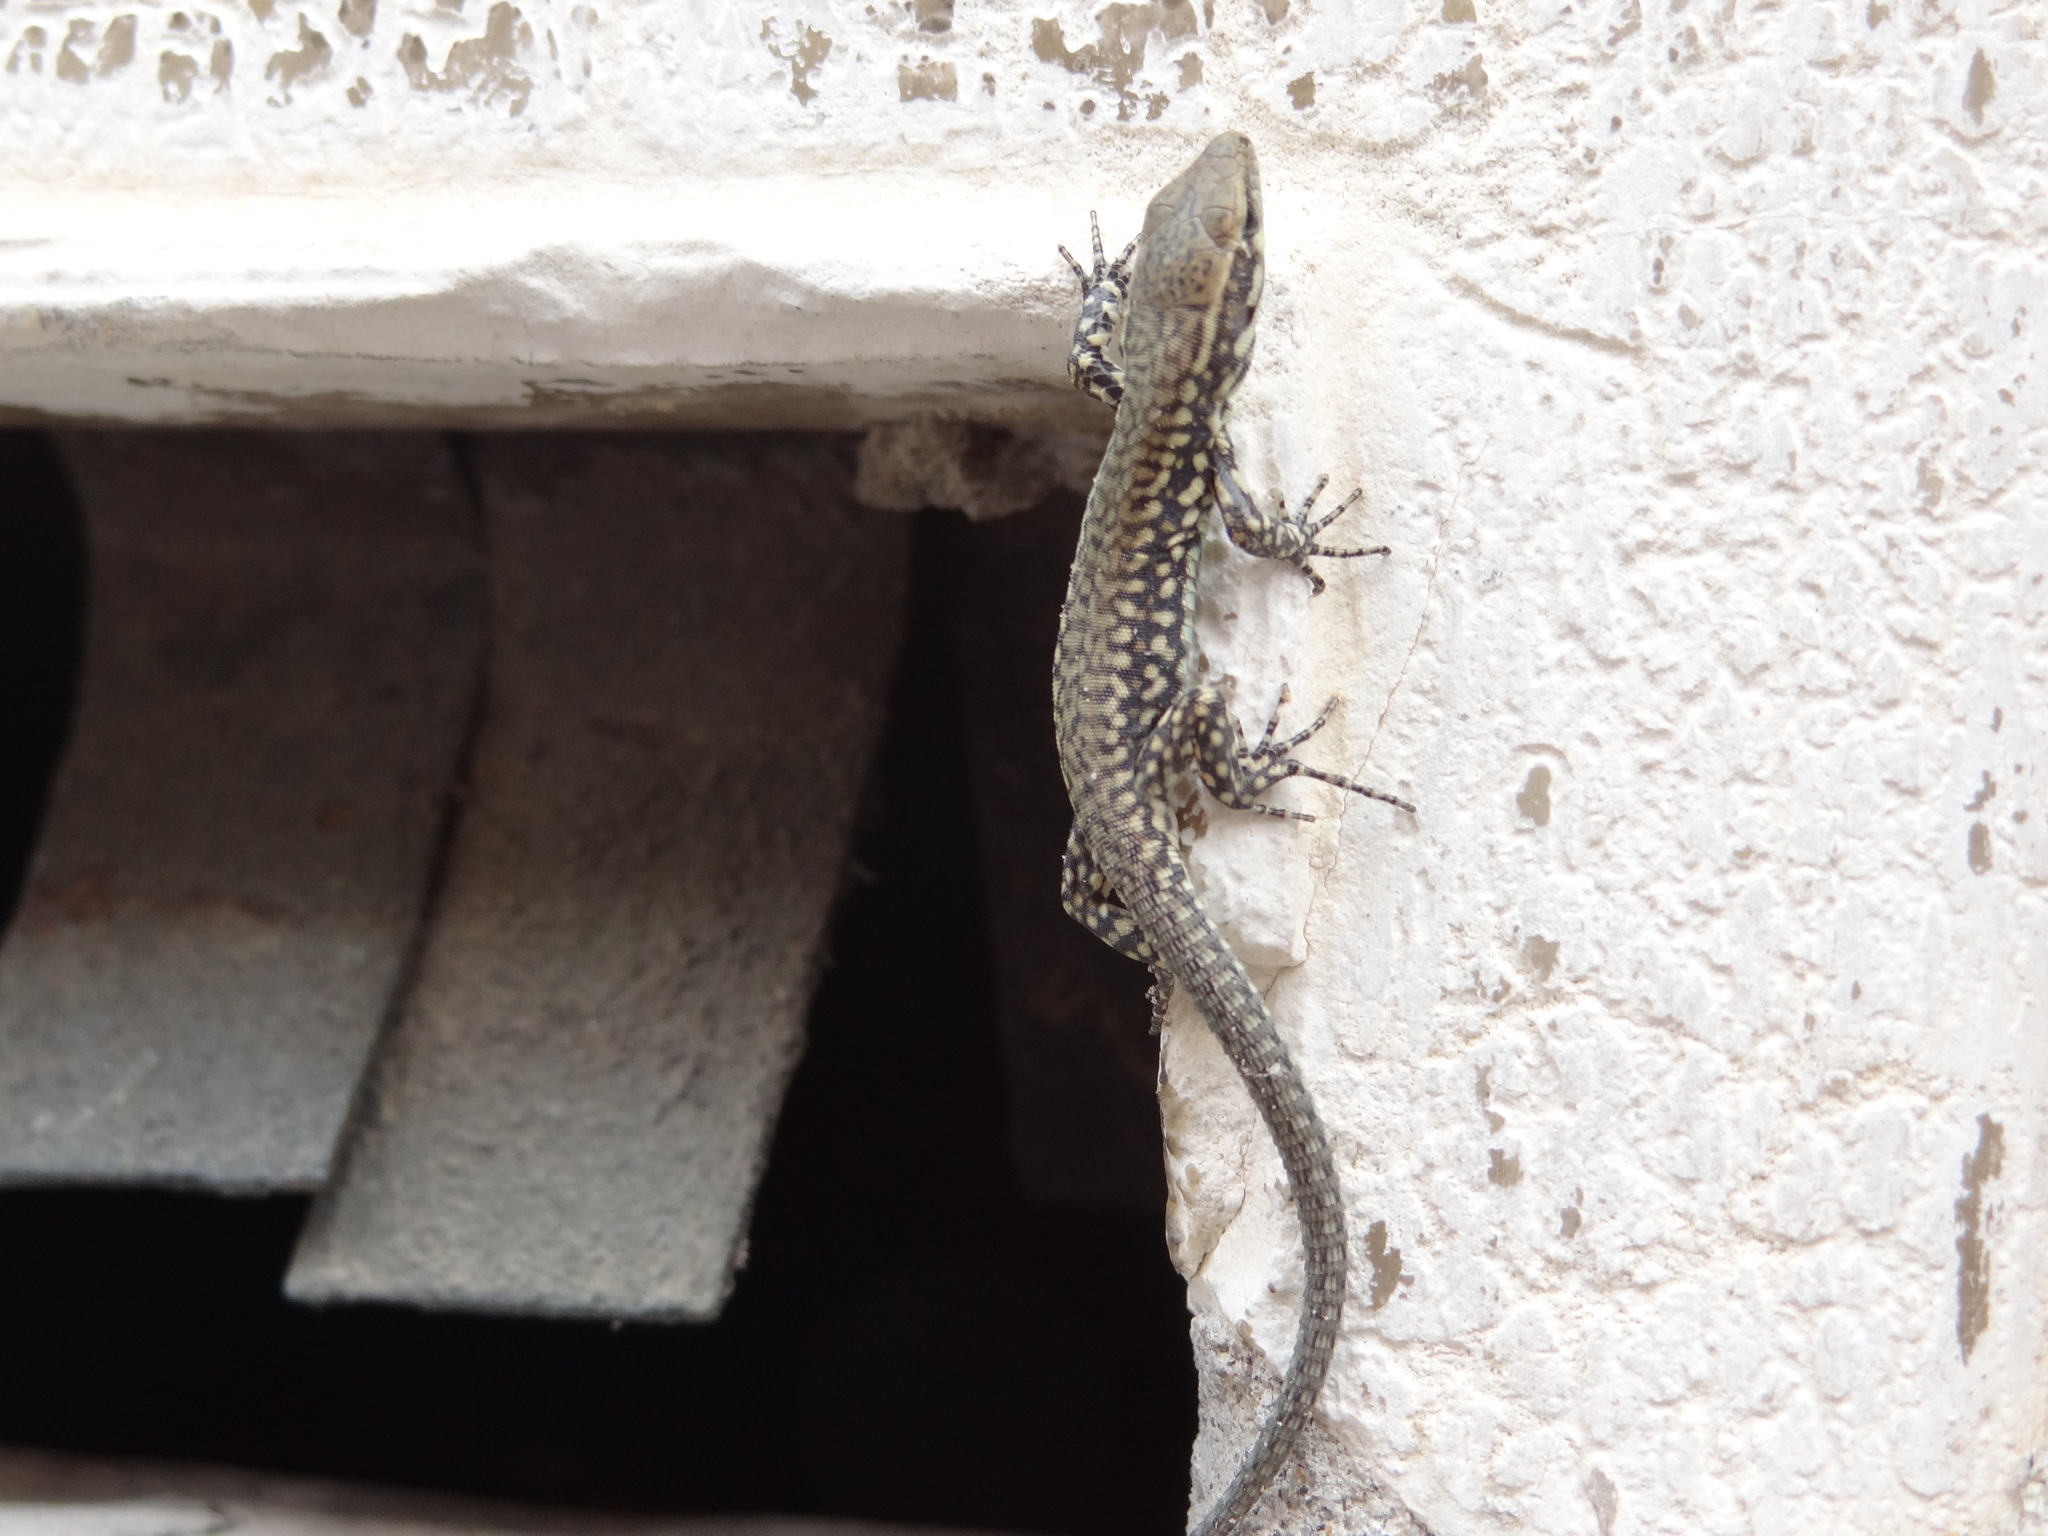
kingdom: Animalia
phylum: Chordata
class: Squamata
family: Lacertidae
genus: Podarcis
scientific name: Podarcis muralis
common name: Common wall lizard
